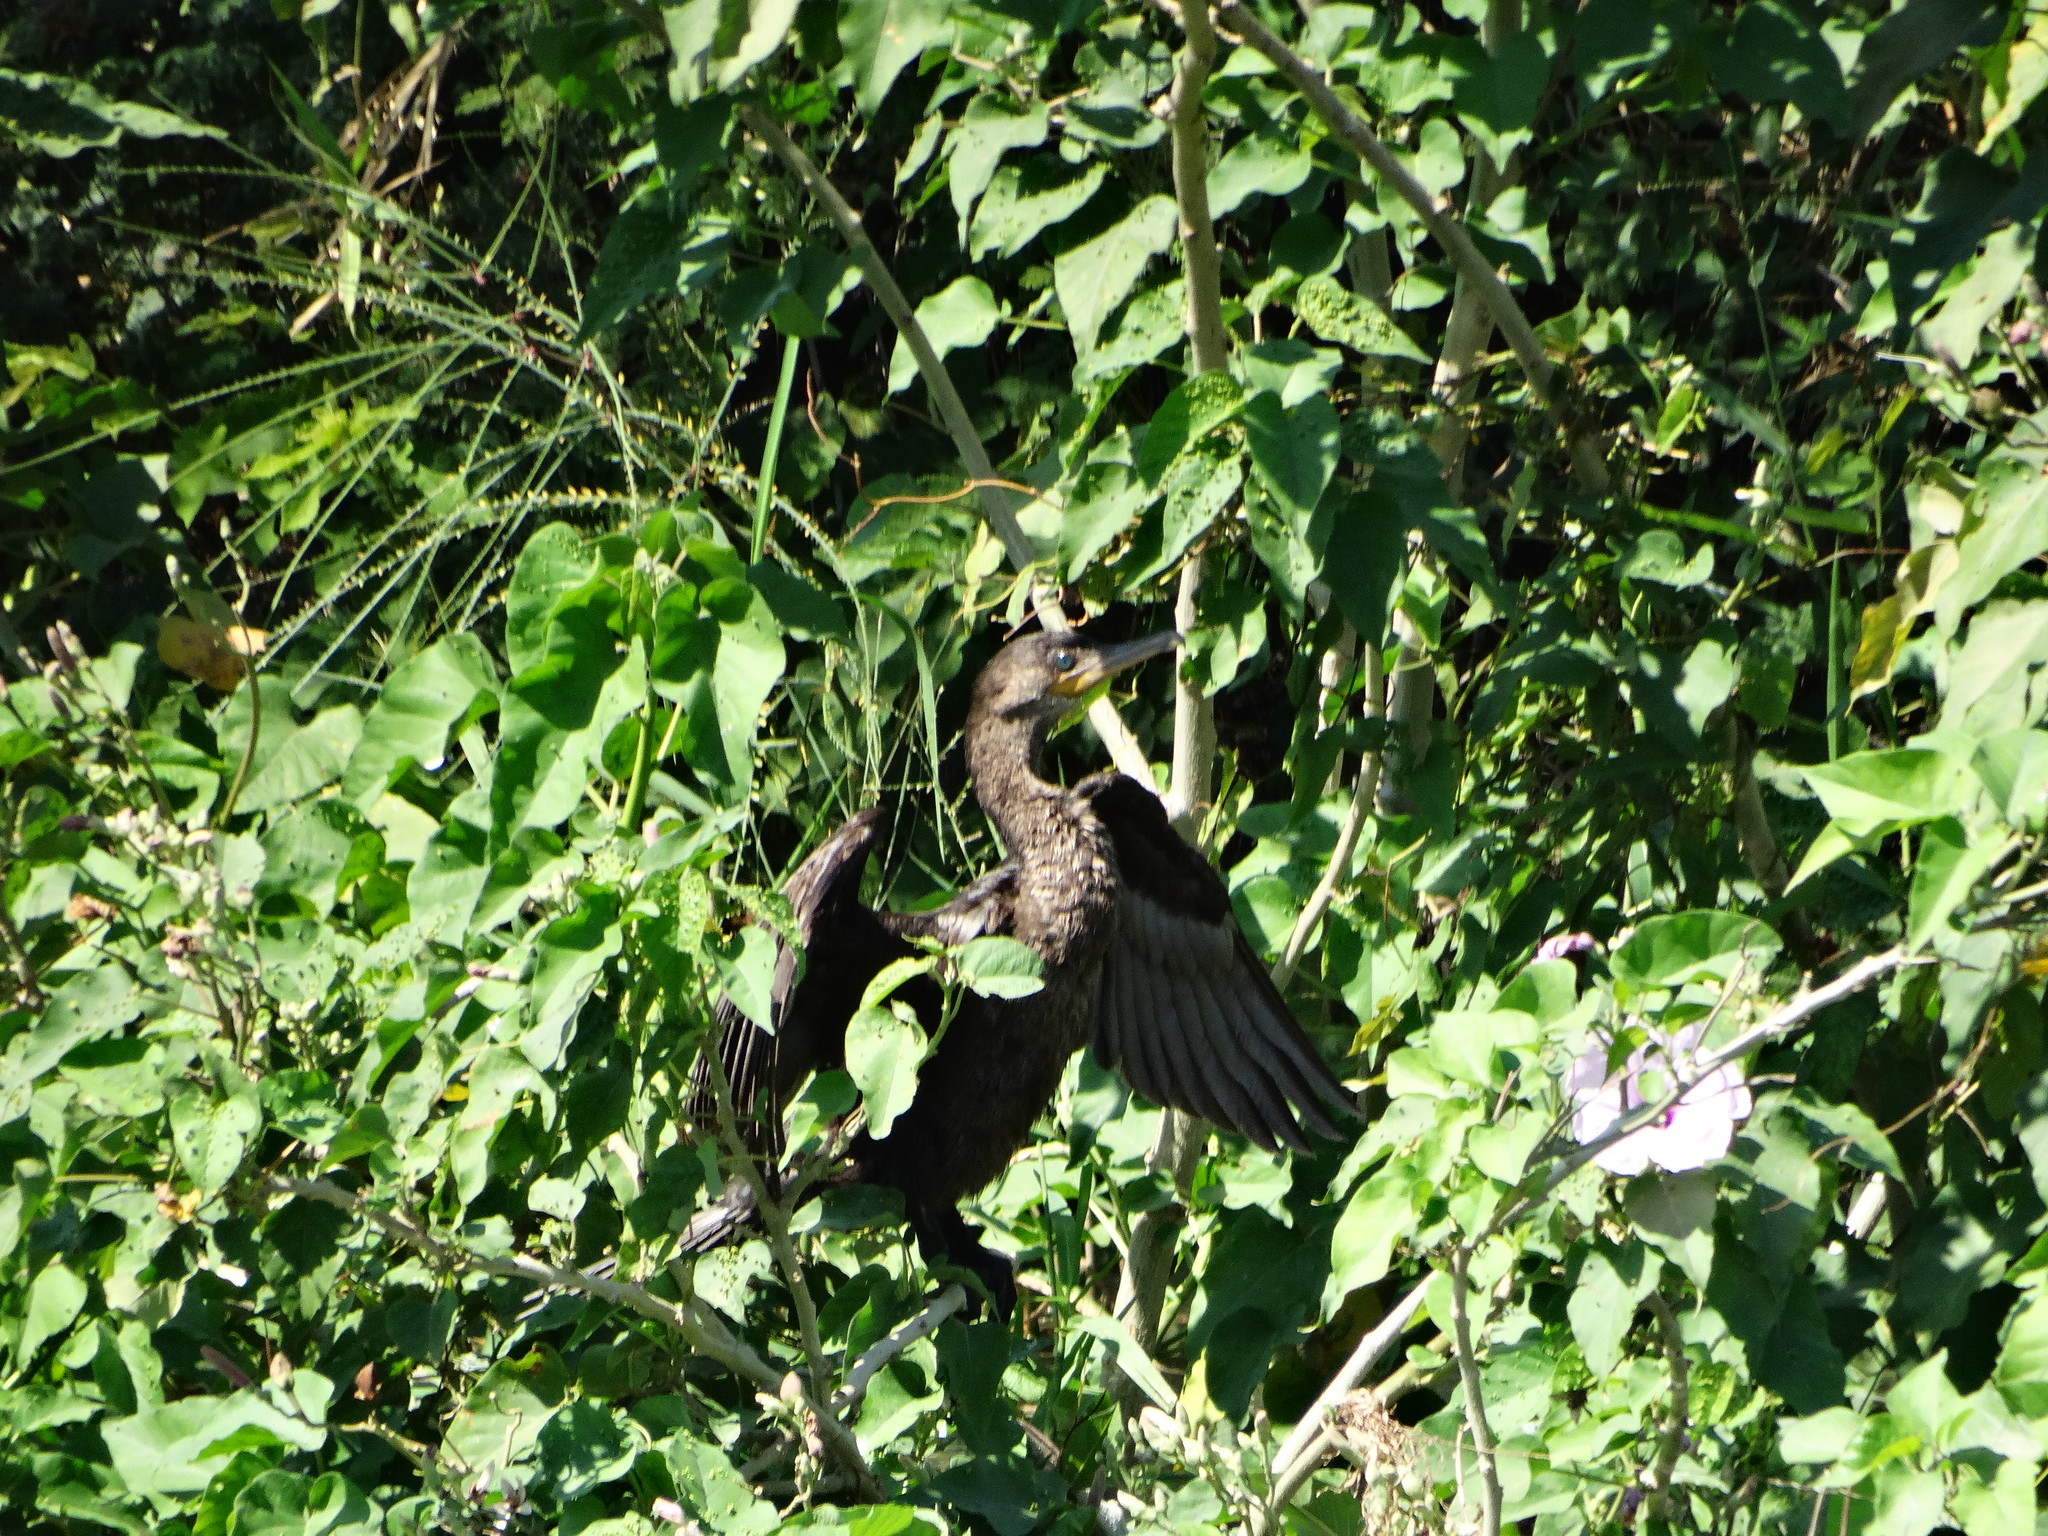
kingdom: Animalia
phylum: Chordata
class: Aves
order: Suliformes
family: Phalacrocoracidae
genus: Phalacrocorax
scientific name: Phalacrocorax brasilianus
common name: Neotropic cormorant
